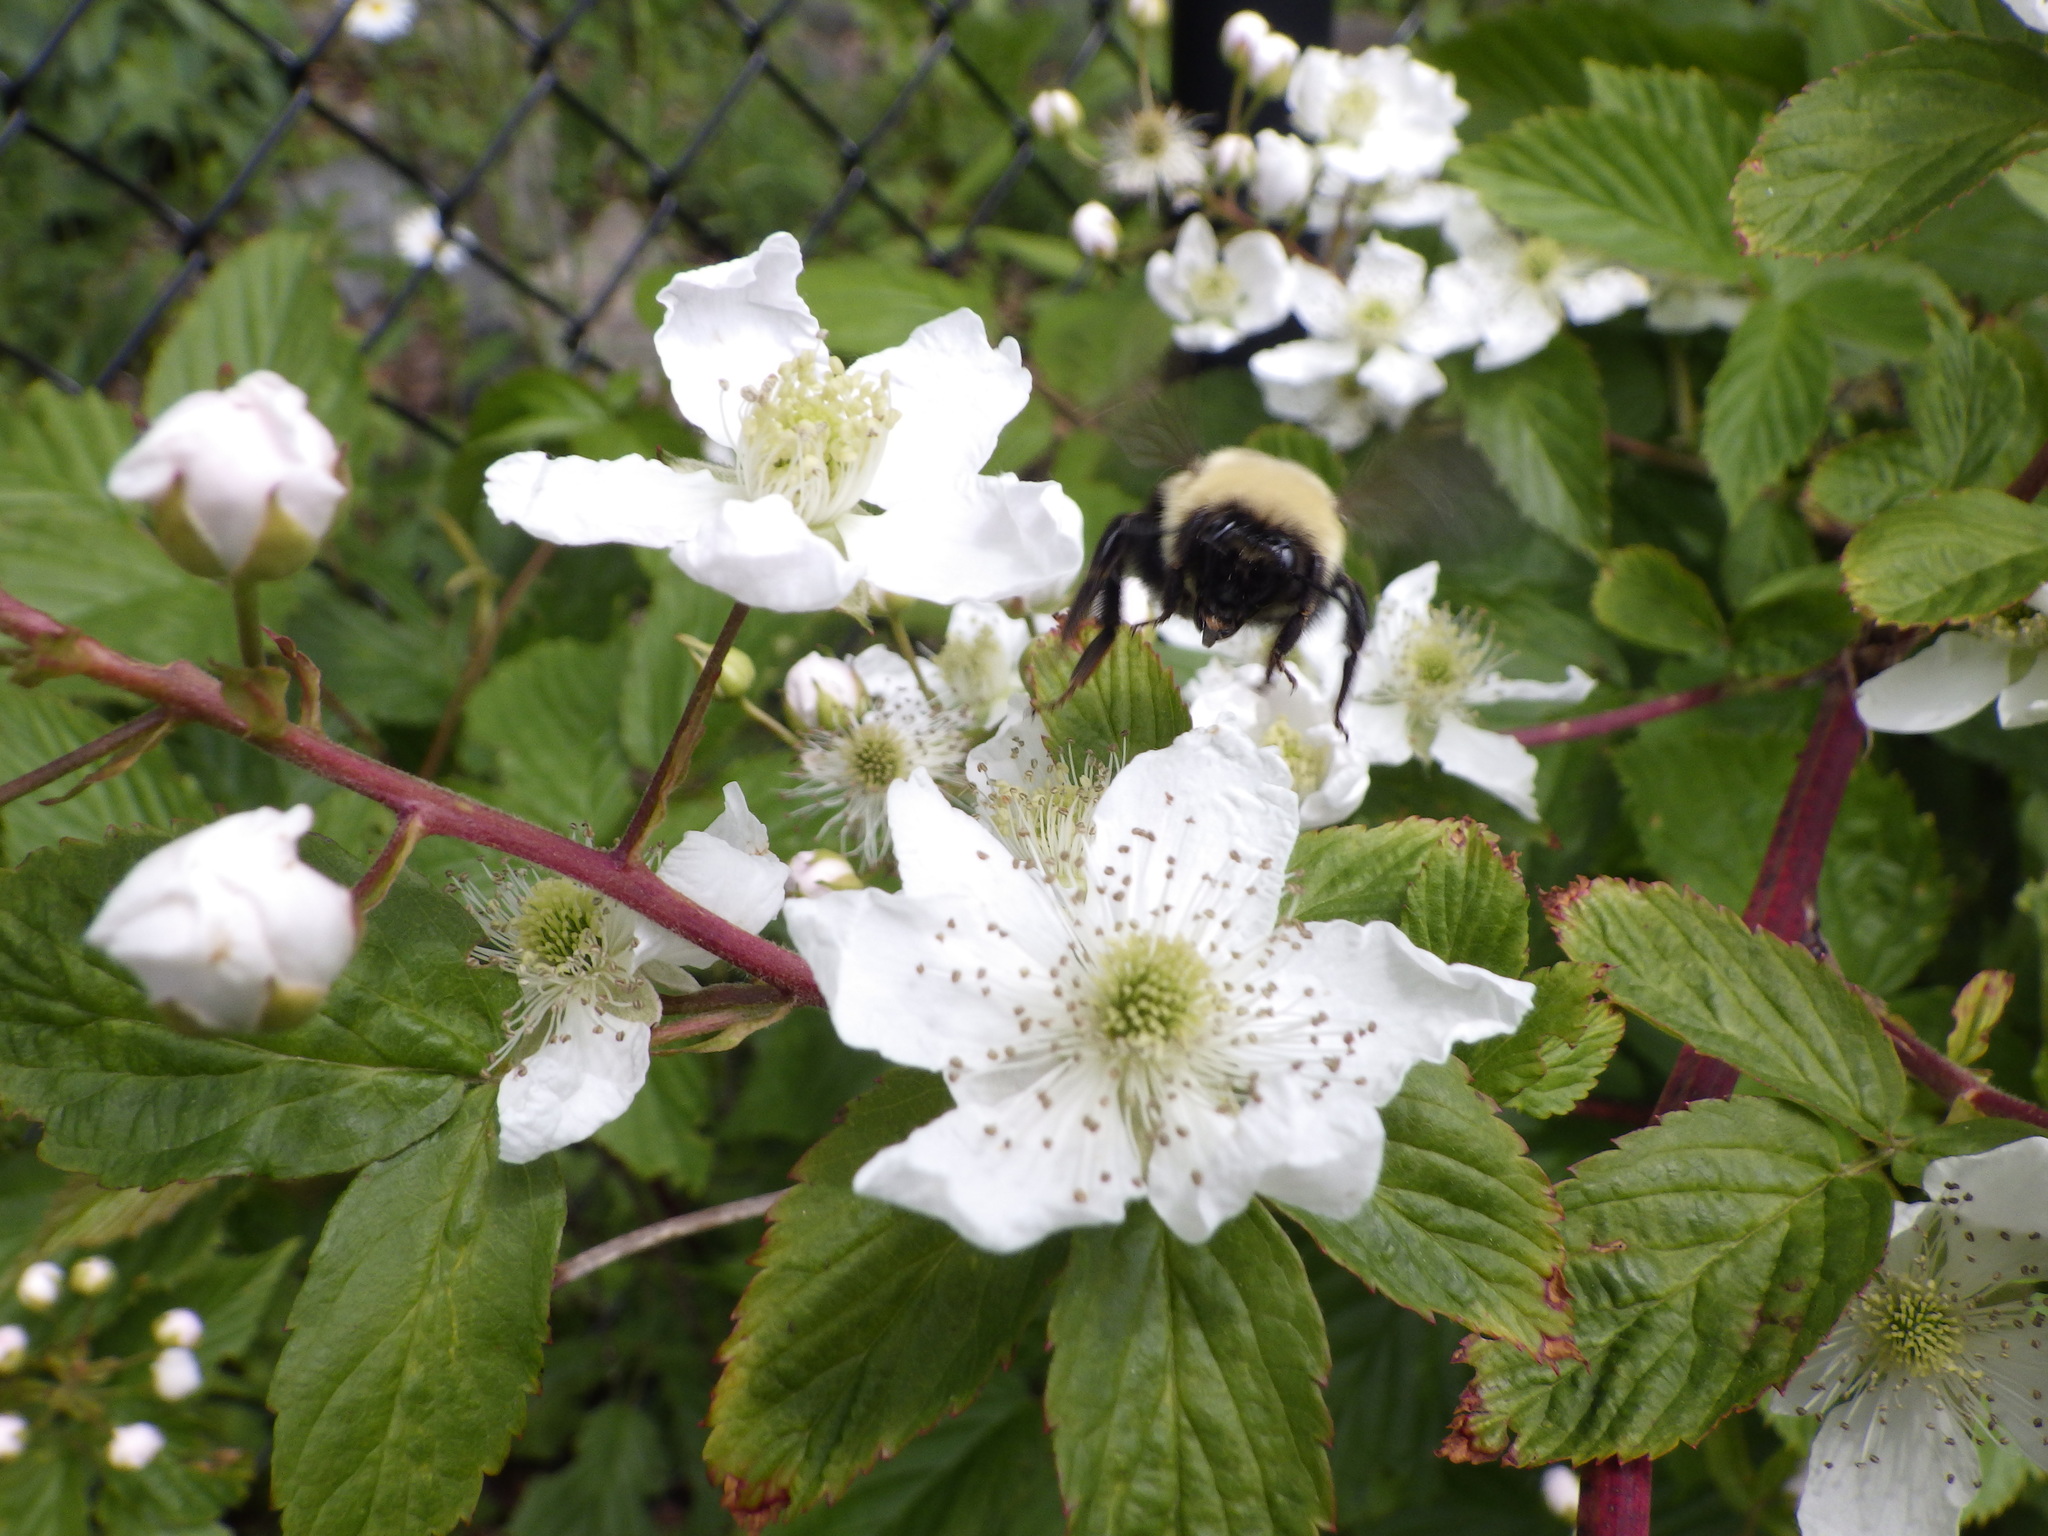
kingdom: Animalia
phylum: Arthropoda
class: Insecta
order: Hymenoptera
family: Apidae
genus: Bombus
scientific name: Bombus impatiens
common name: Common eastern bumble bee
